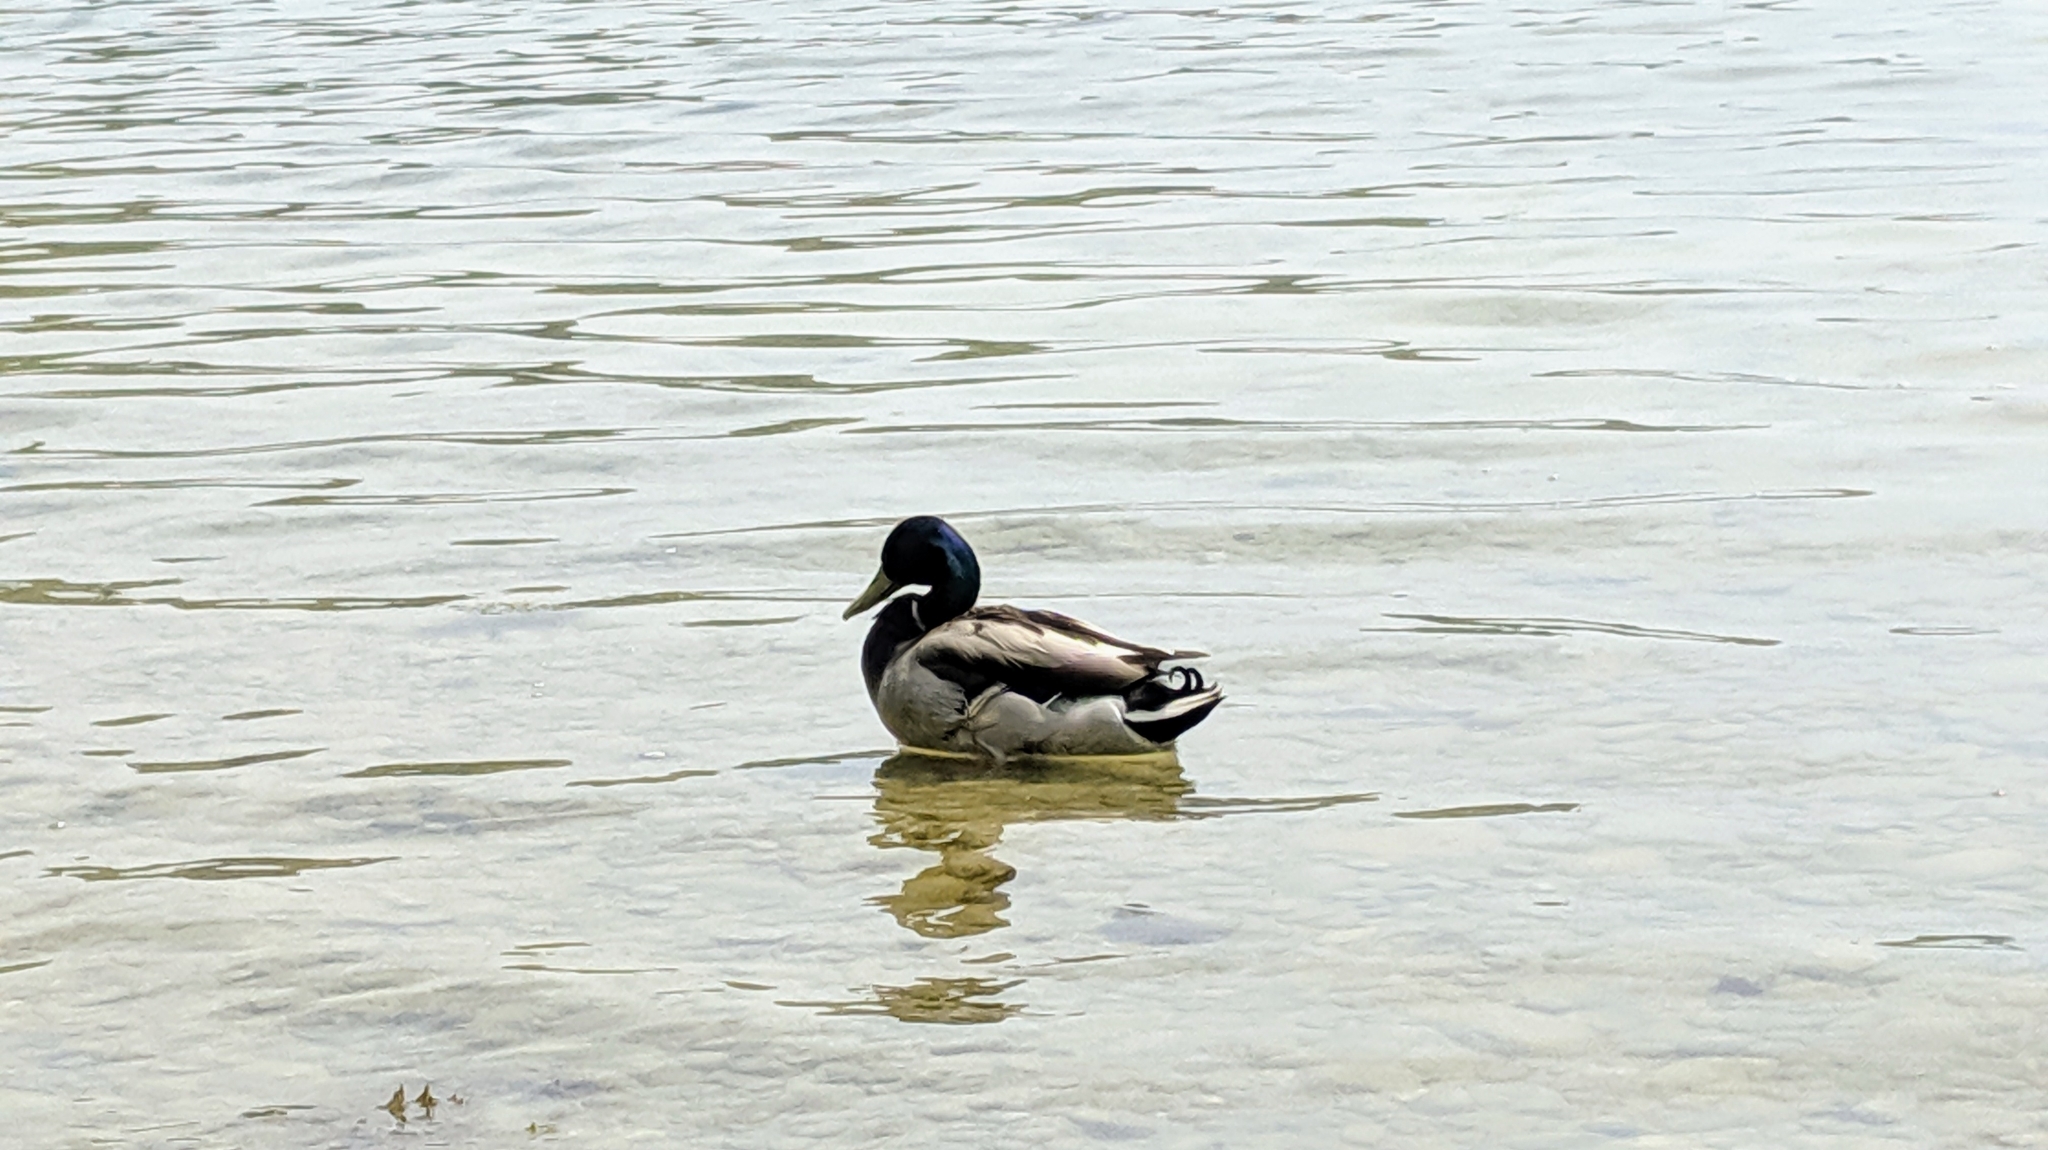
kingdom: Animalia
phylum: Chordata
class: Aves
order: Anseriformes
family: Anatidae
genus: Anas
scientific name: Anas platyrhynchos
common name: Mallard
